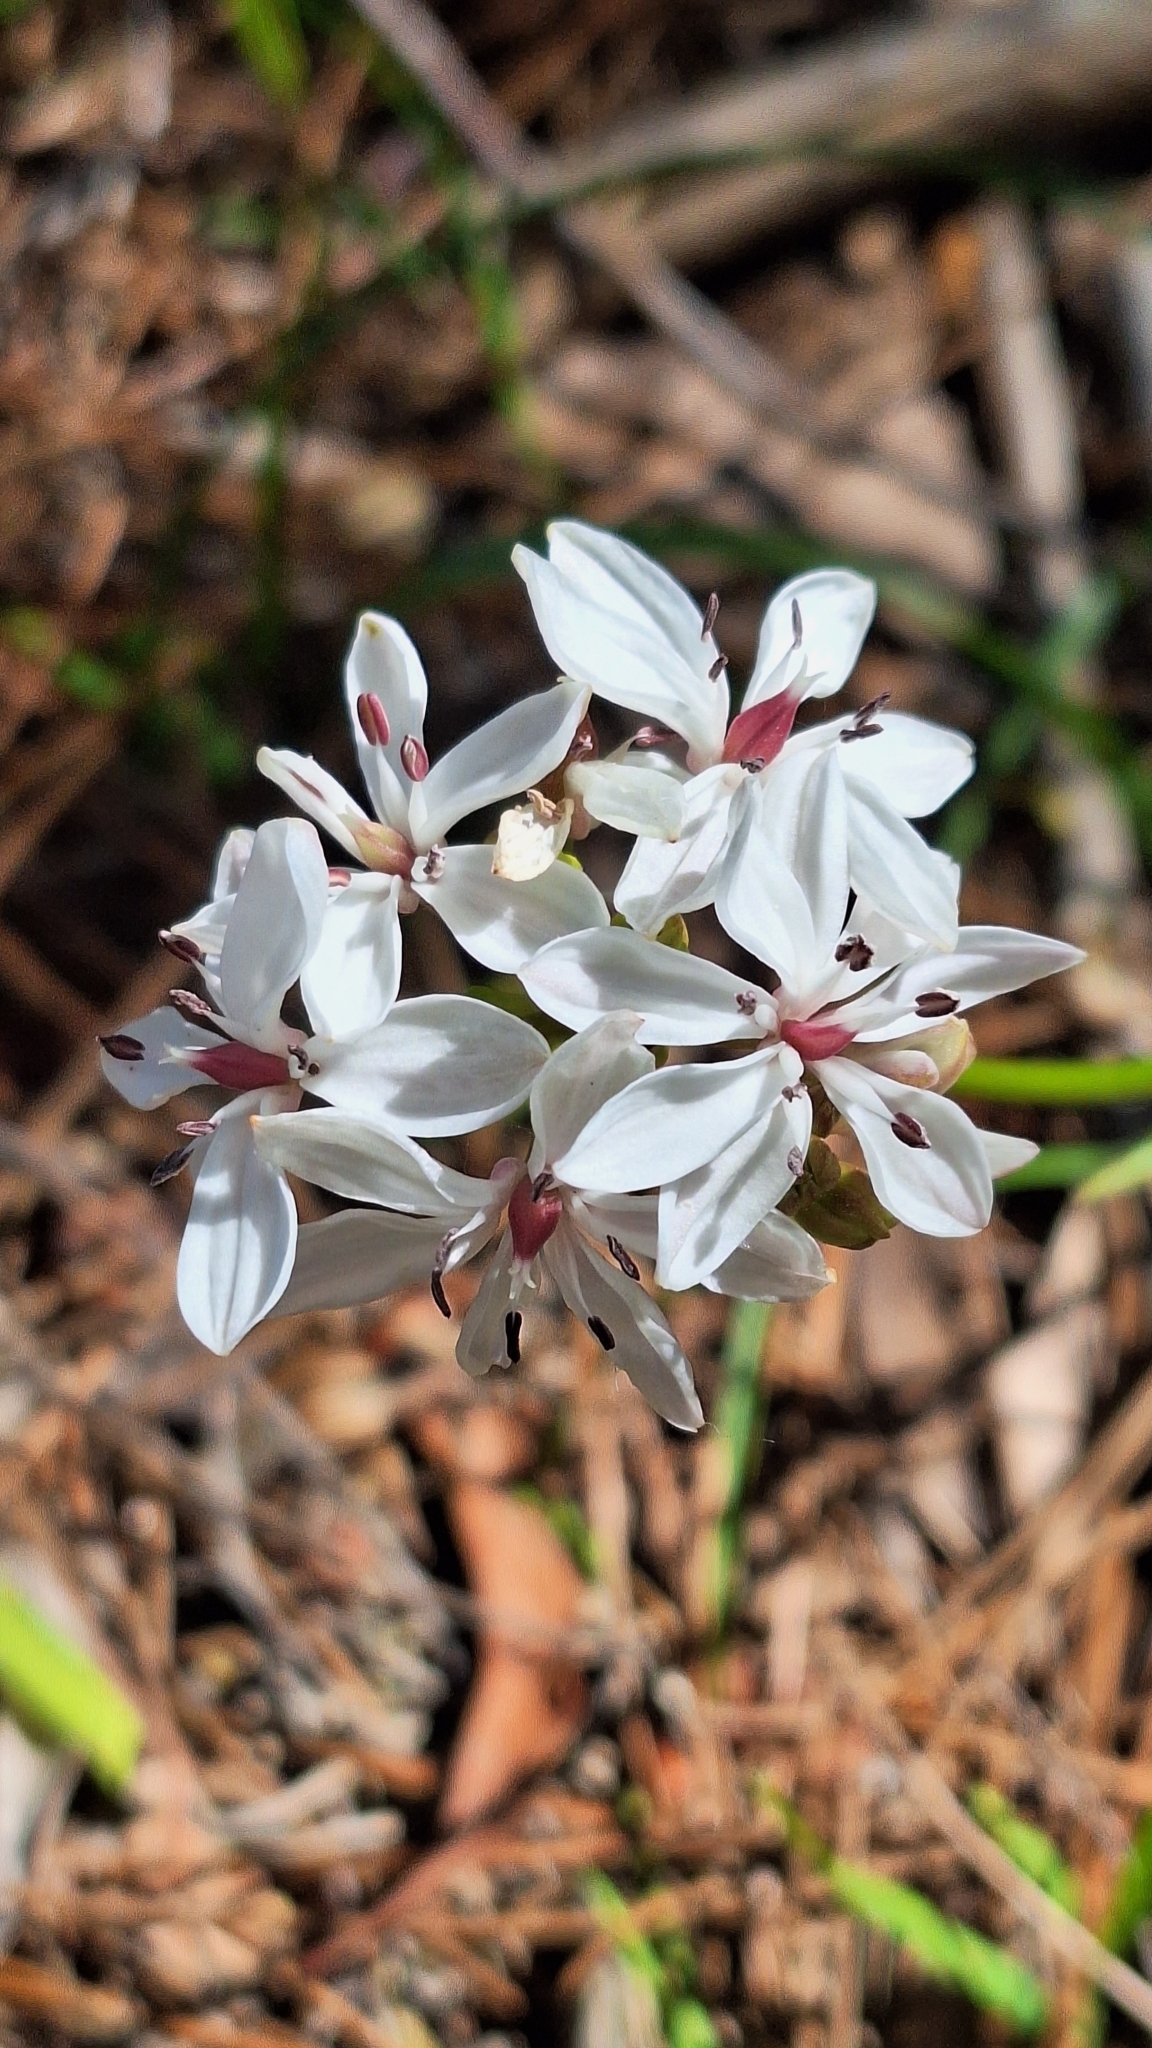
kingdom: Plantae
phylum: Tracheophyta
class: Liliopsida
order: Liliales
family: Colchicaceae
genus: Burchardia
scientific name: Burchardia umbellata
